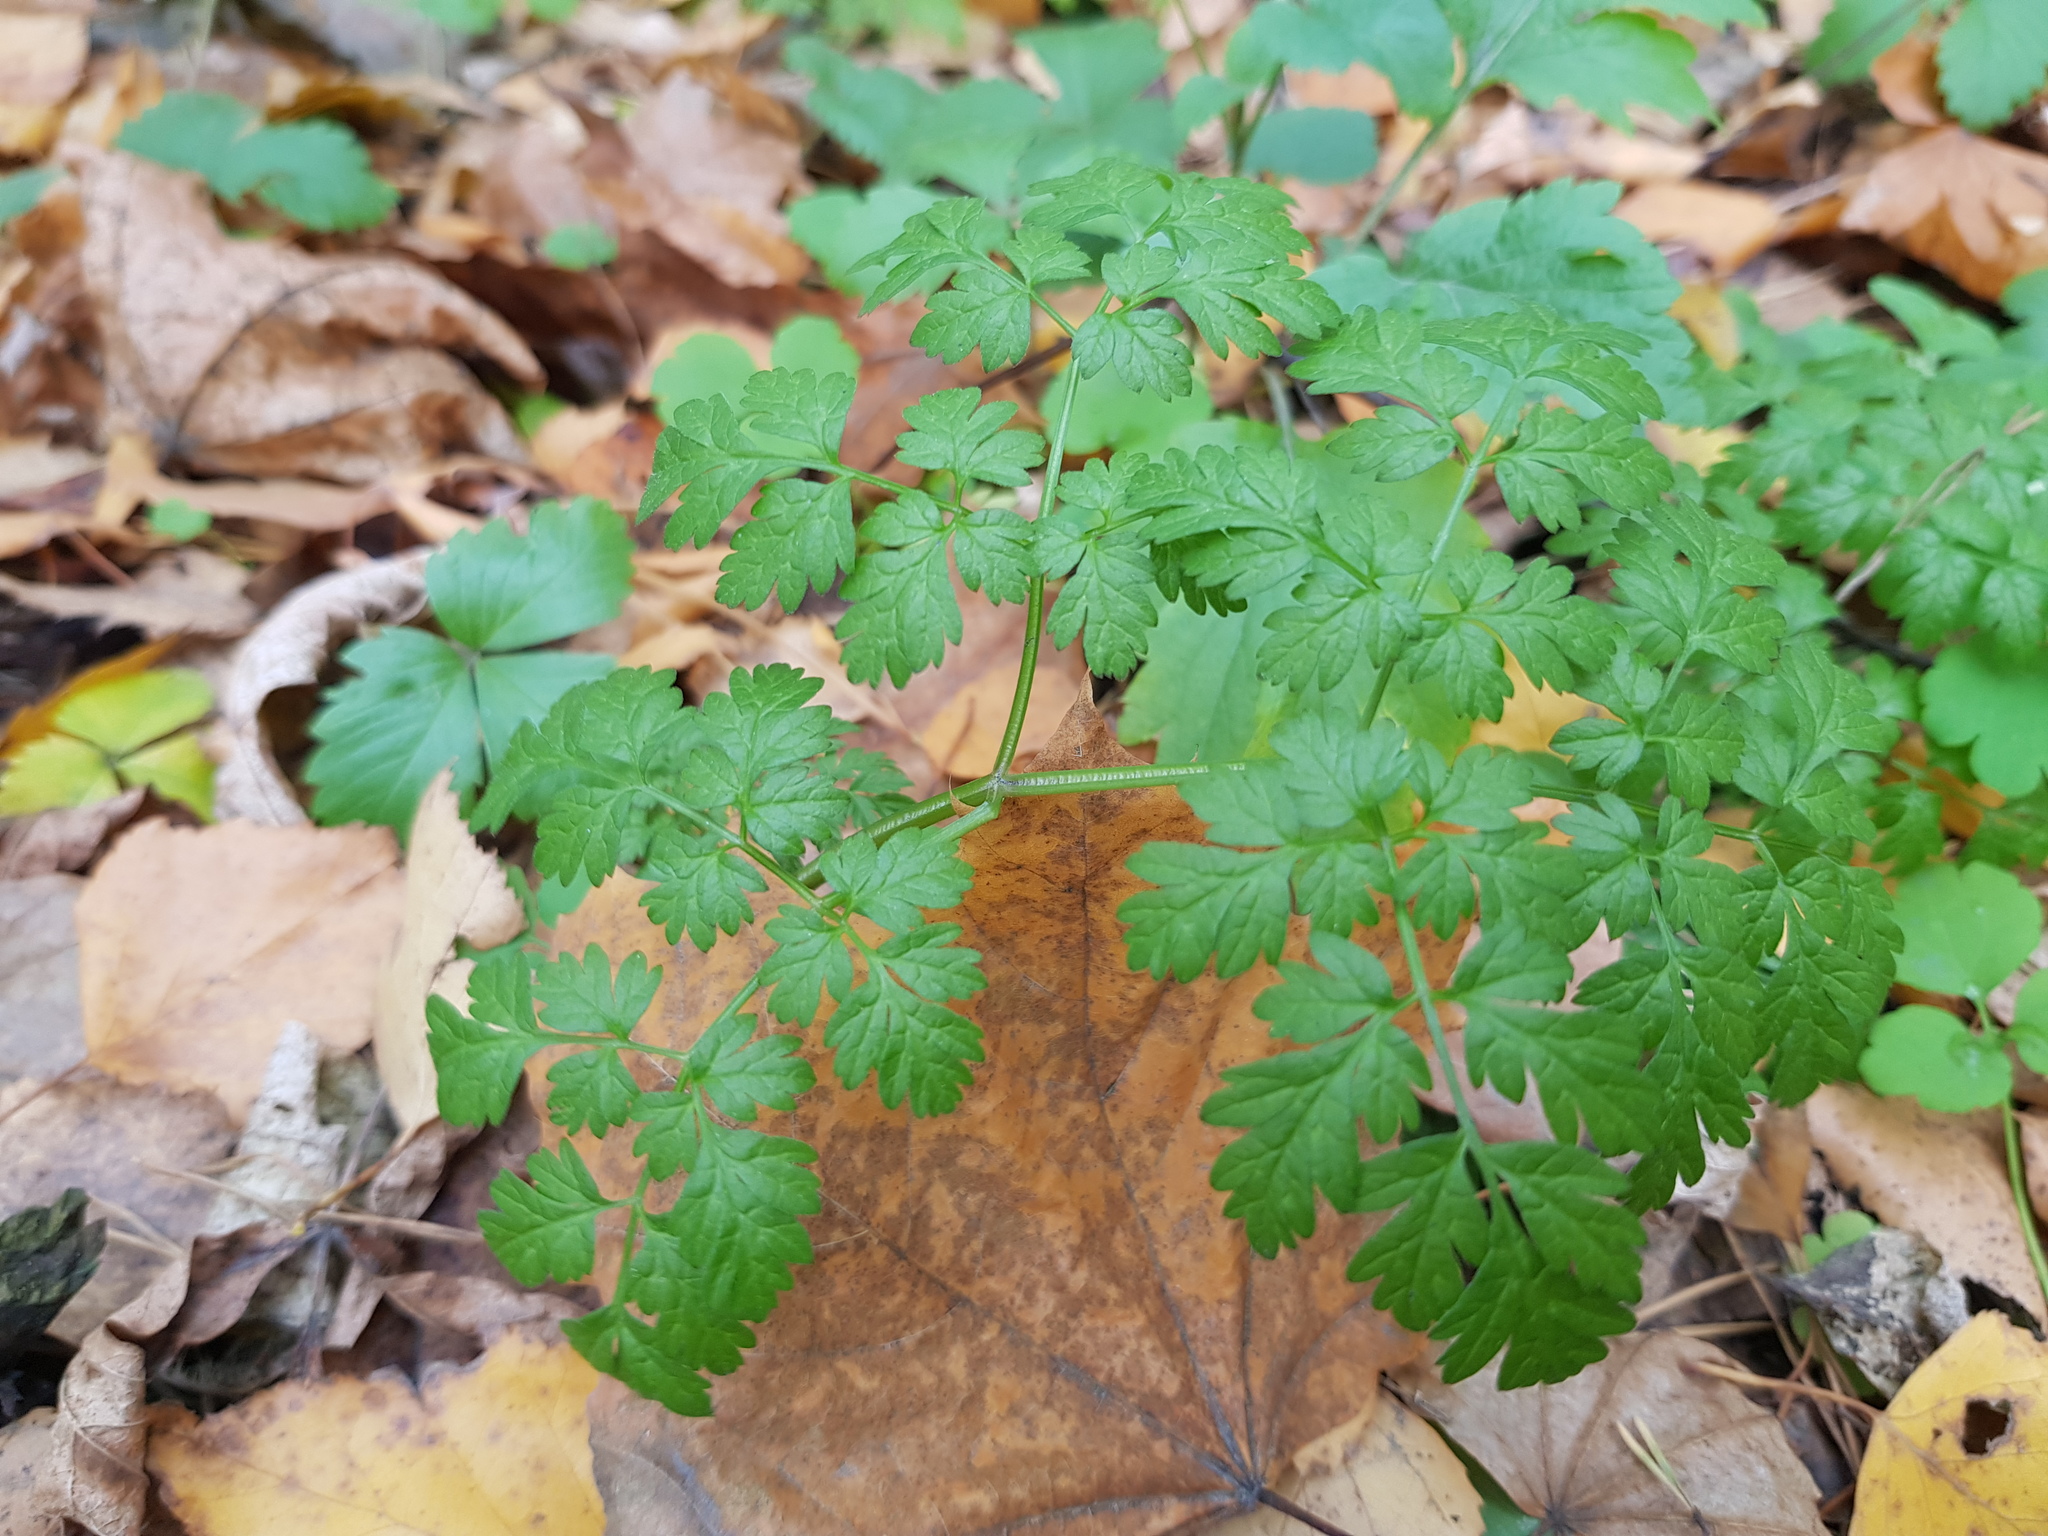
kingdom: Plantae
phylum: Tracheophyta
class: Magnoliopsida
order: Apiales
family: Apiaceae
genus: Anthriscus
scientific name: Anthriscus sylvestris
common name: Cow parsley
